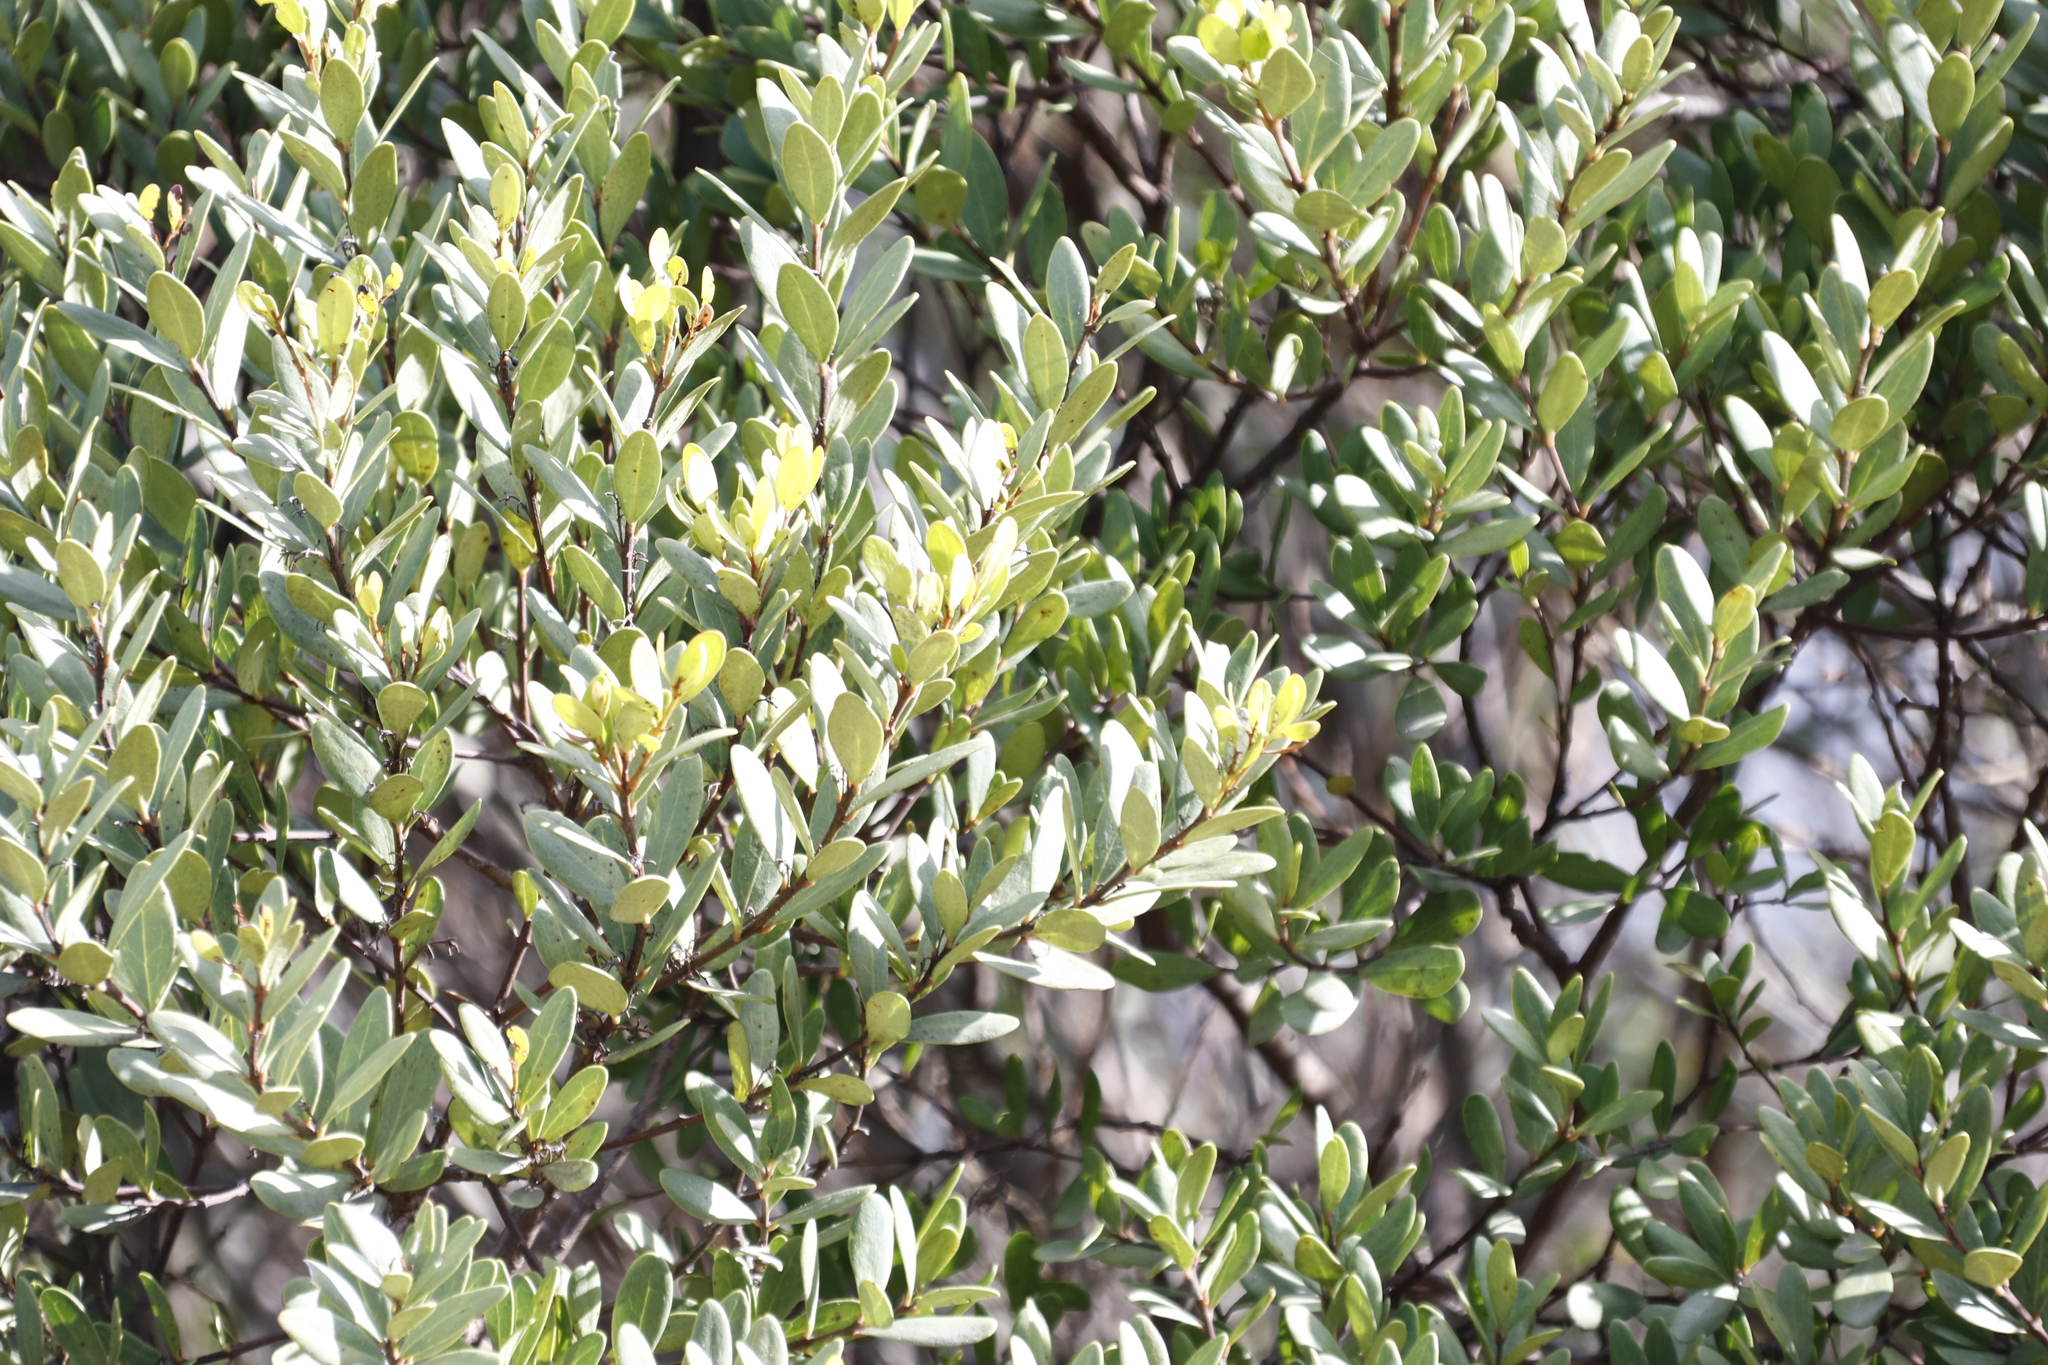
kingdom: Plantae
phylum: Tracheophyta
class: Magnoliopsida
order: Ericales
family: Ebenaceae
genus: Euclea
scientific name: Euclea racemosa
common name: Dune guarri
